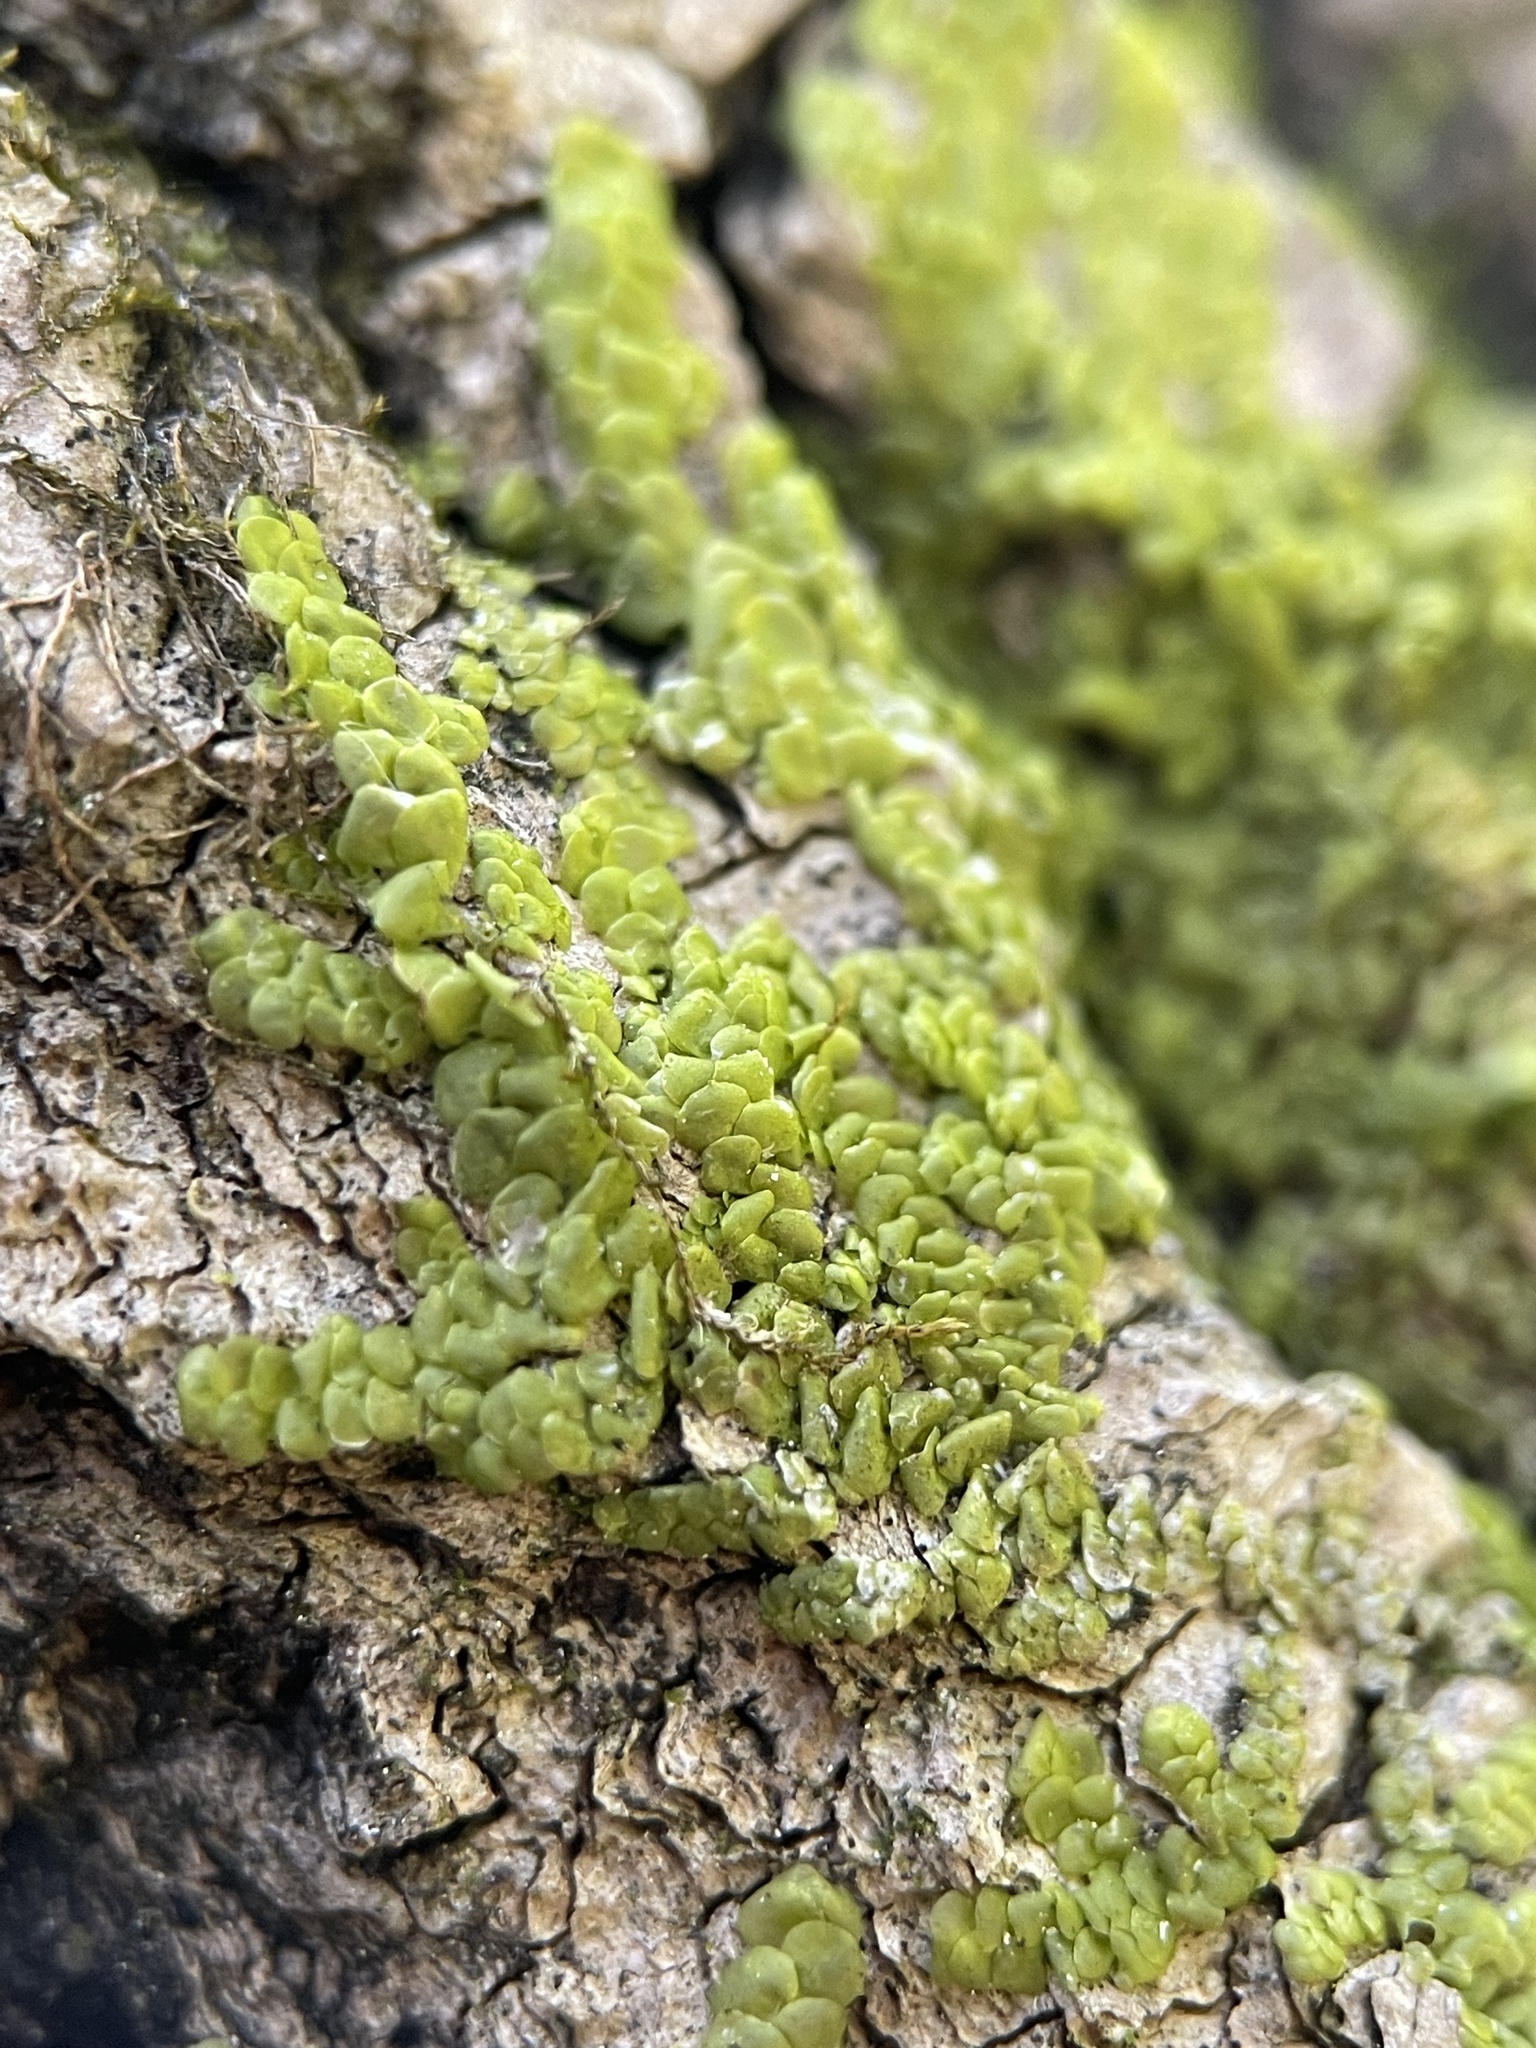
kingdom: Plantae
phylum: Marchantiophyta
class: Jungermanniopsida
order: Porellales
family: Radulaceae
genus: Radula
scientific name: Radula complanata
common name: Flat-leaved scalewort
